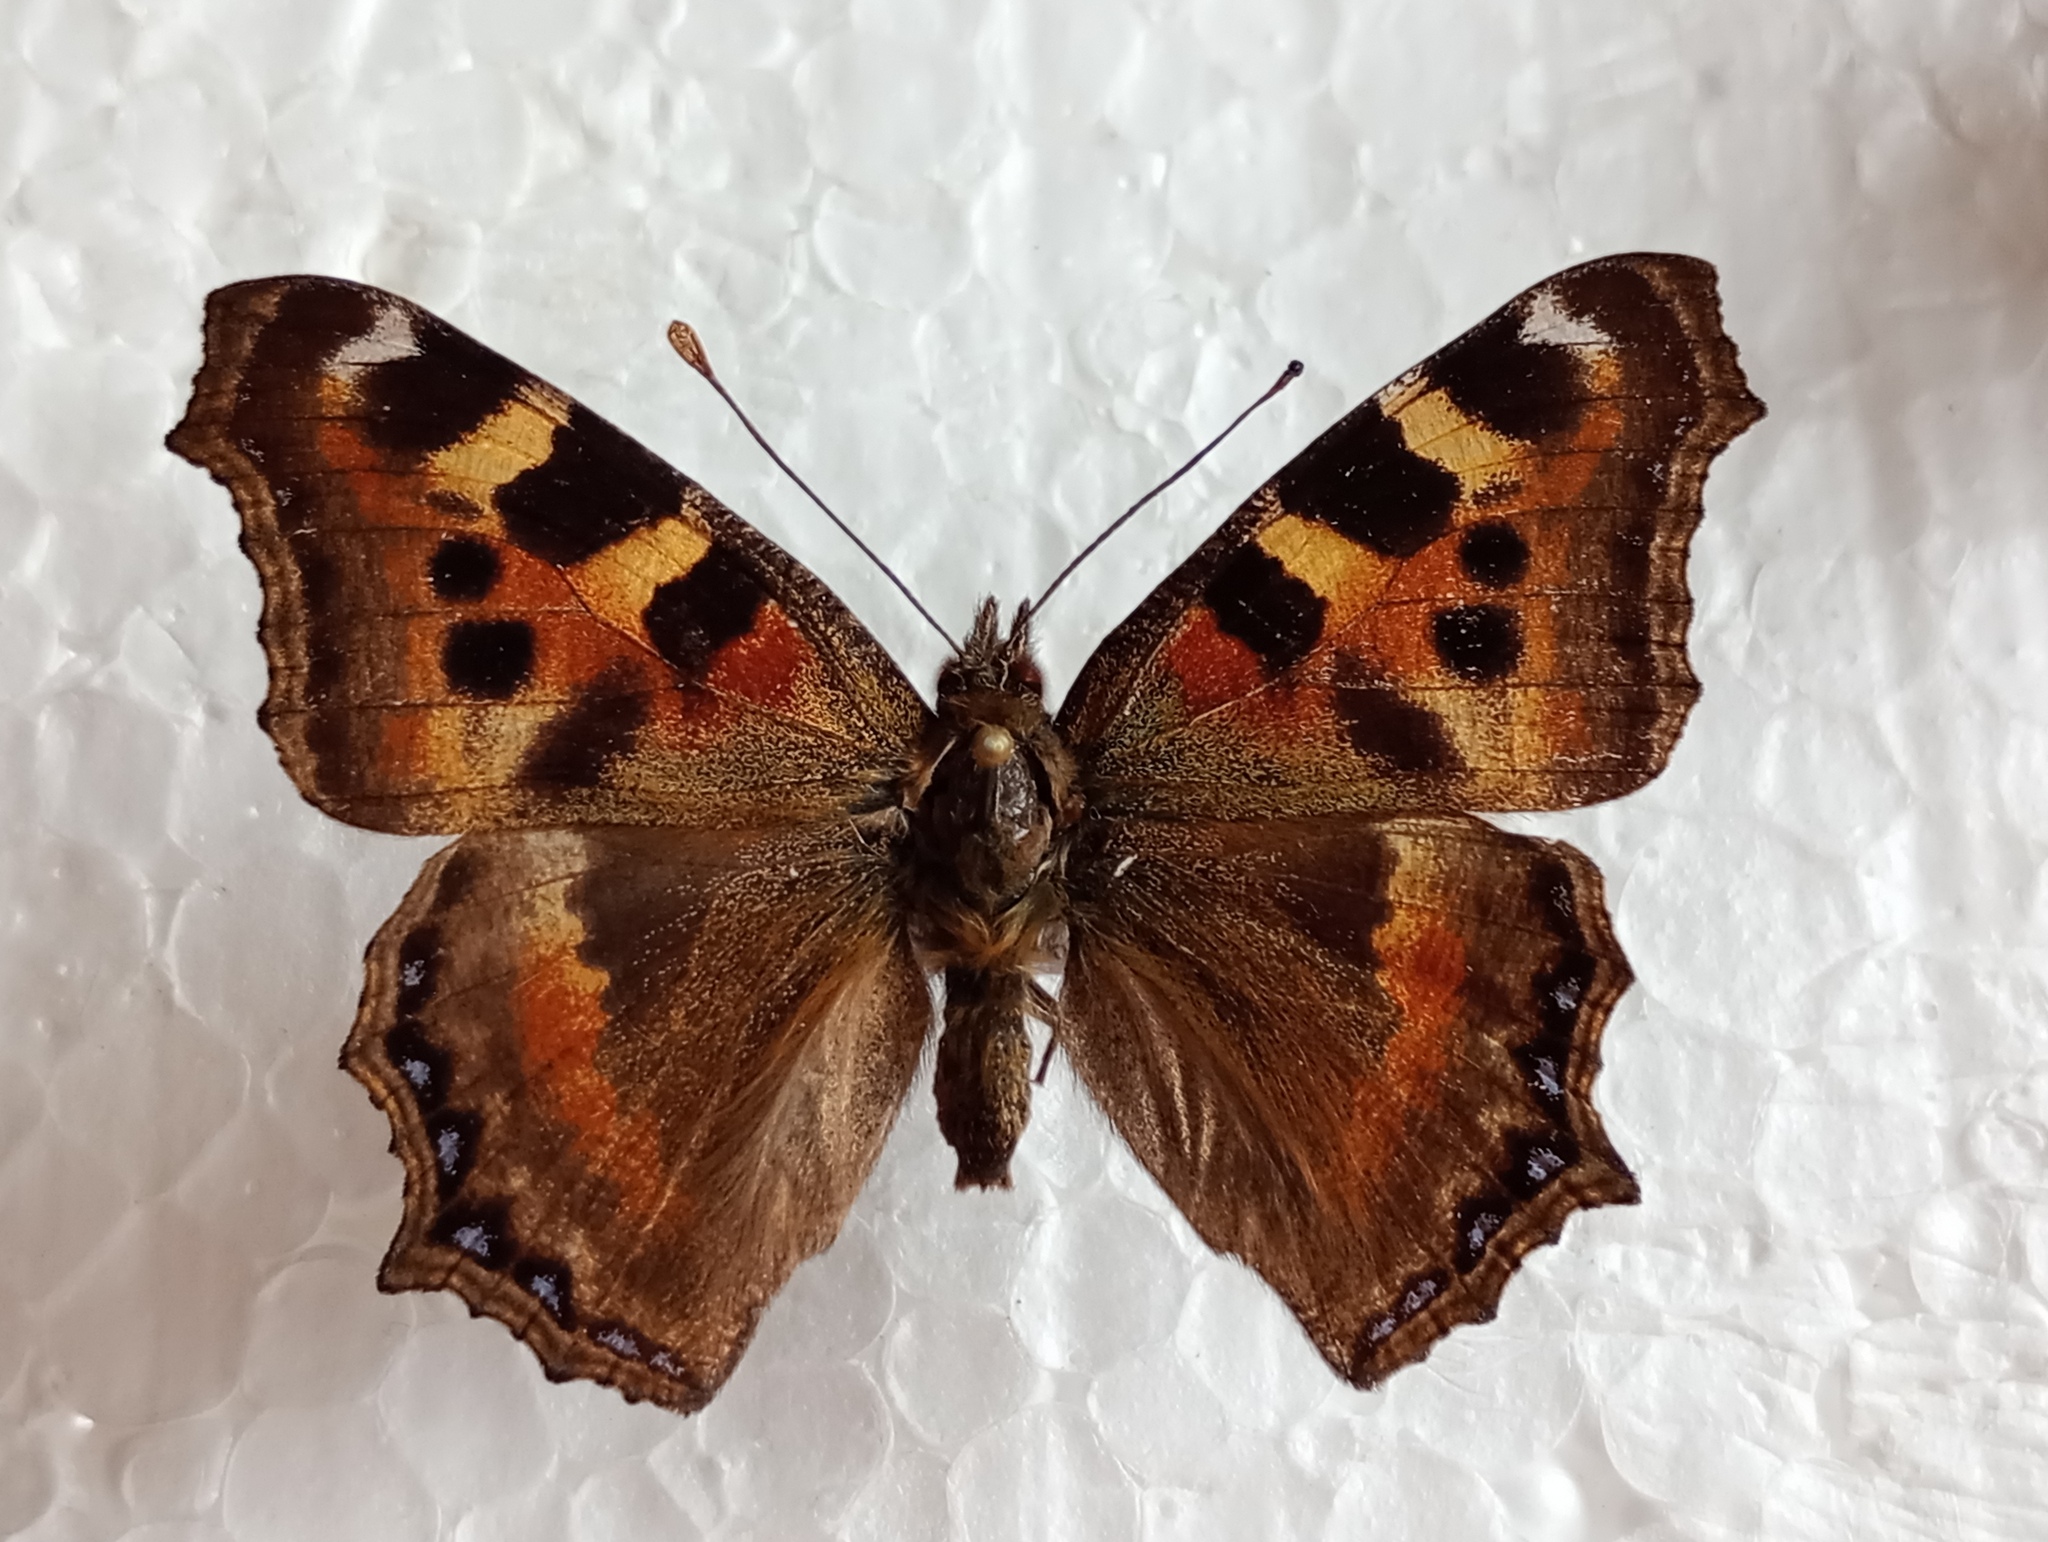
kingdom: Animalia
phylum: Arthropoda
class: Insecta
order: Lepidoptera
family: Nymphalidae
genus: Aglais
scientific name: Aglais caschmirensis
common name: Indian tortoiseshell
